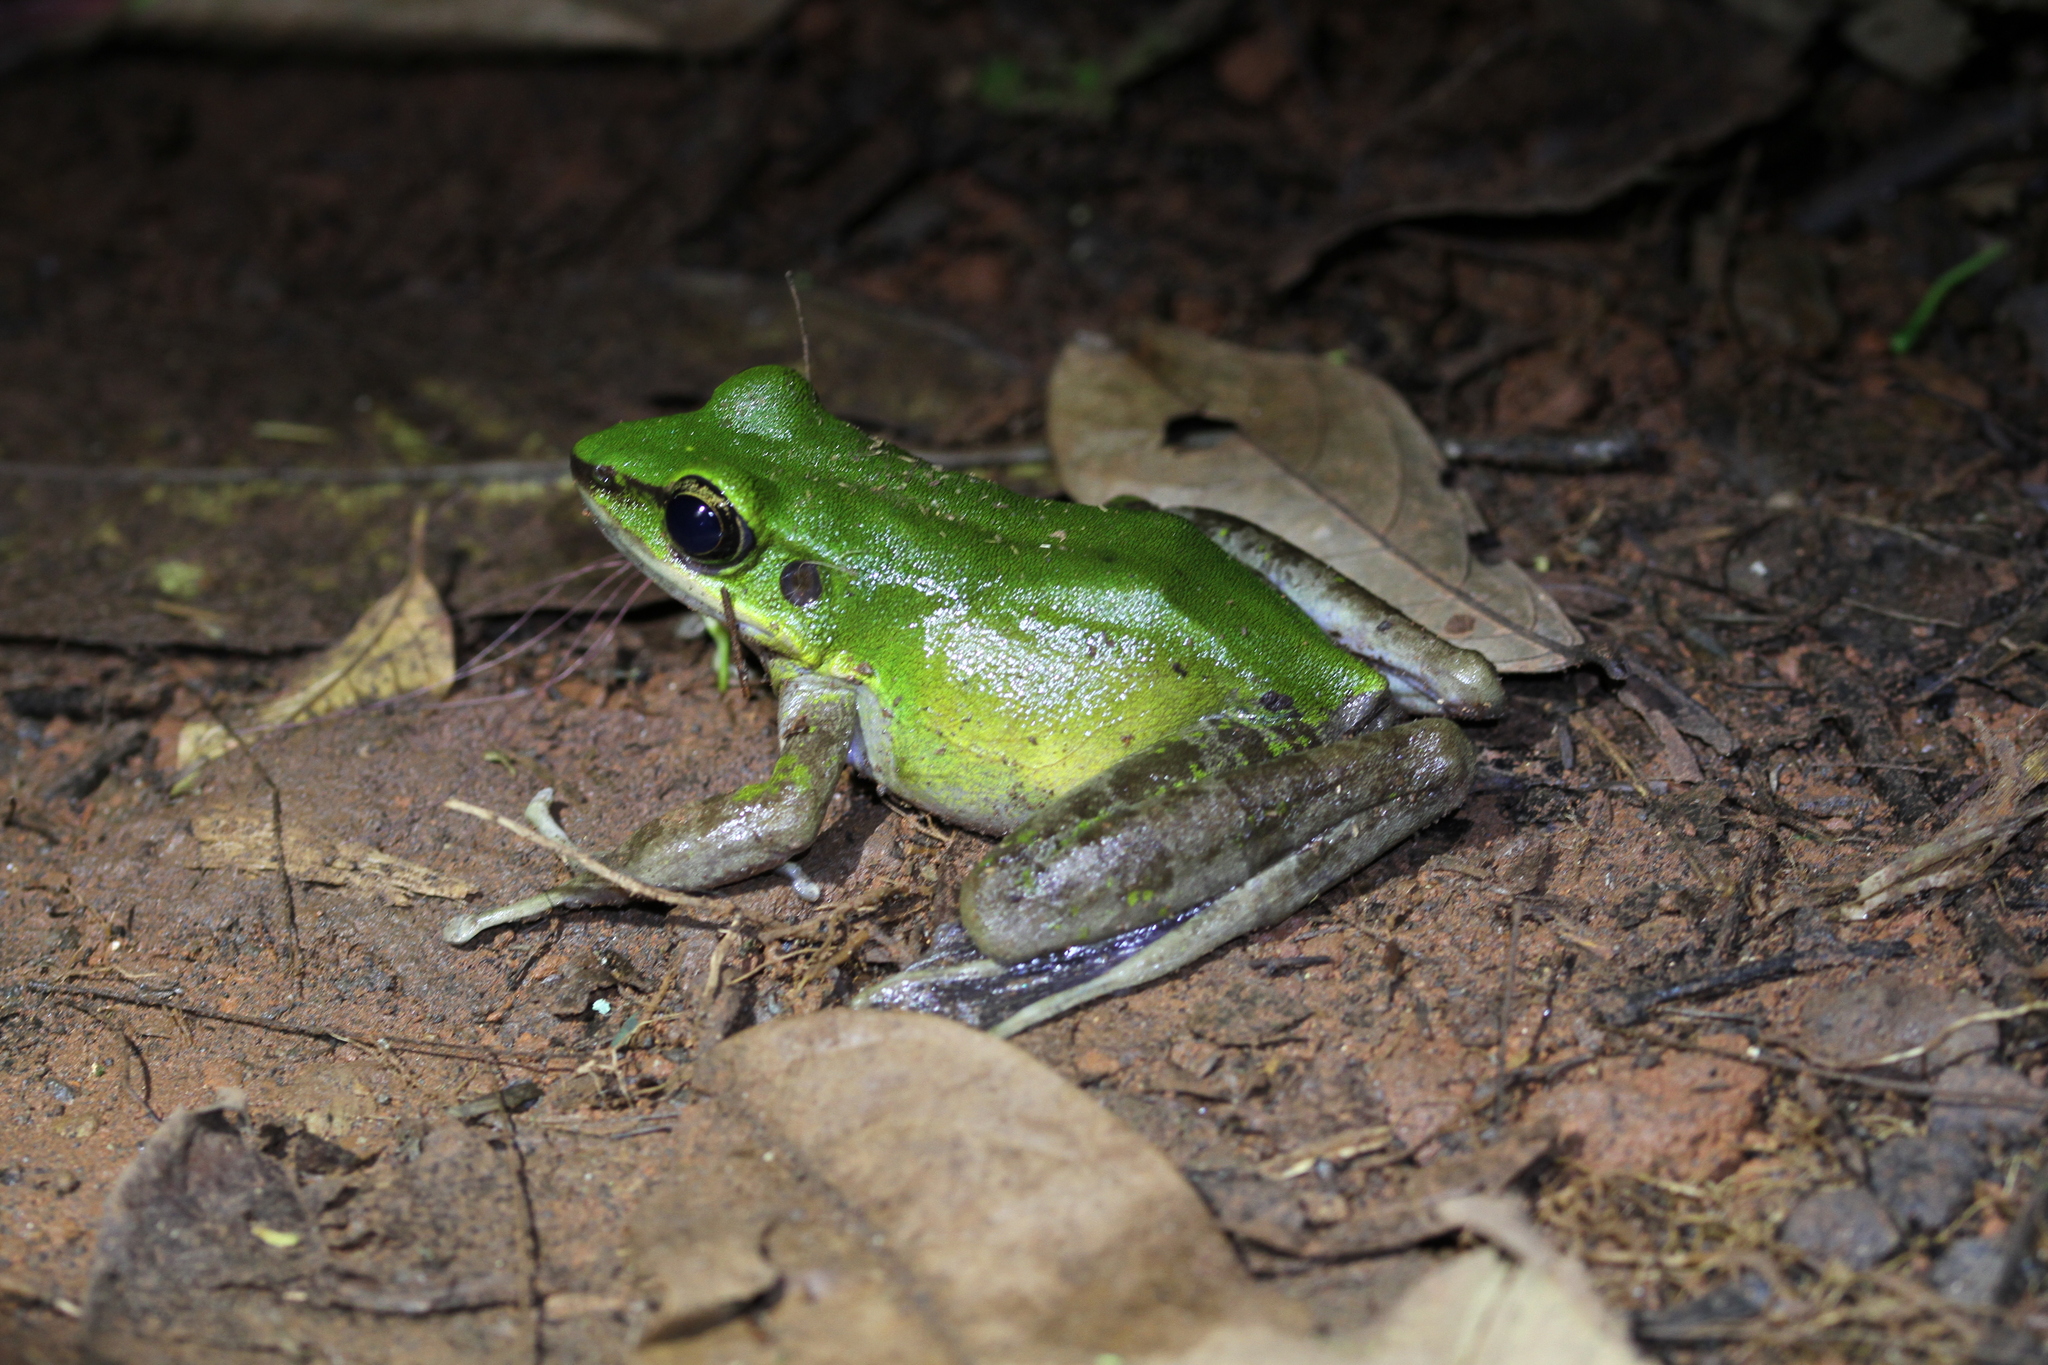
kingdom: Animalia
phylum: Chordata
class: Amphibia
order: Anura
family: Ranidae
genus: Odorrana
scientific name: Odorrana hosii
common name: Green tree frog
